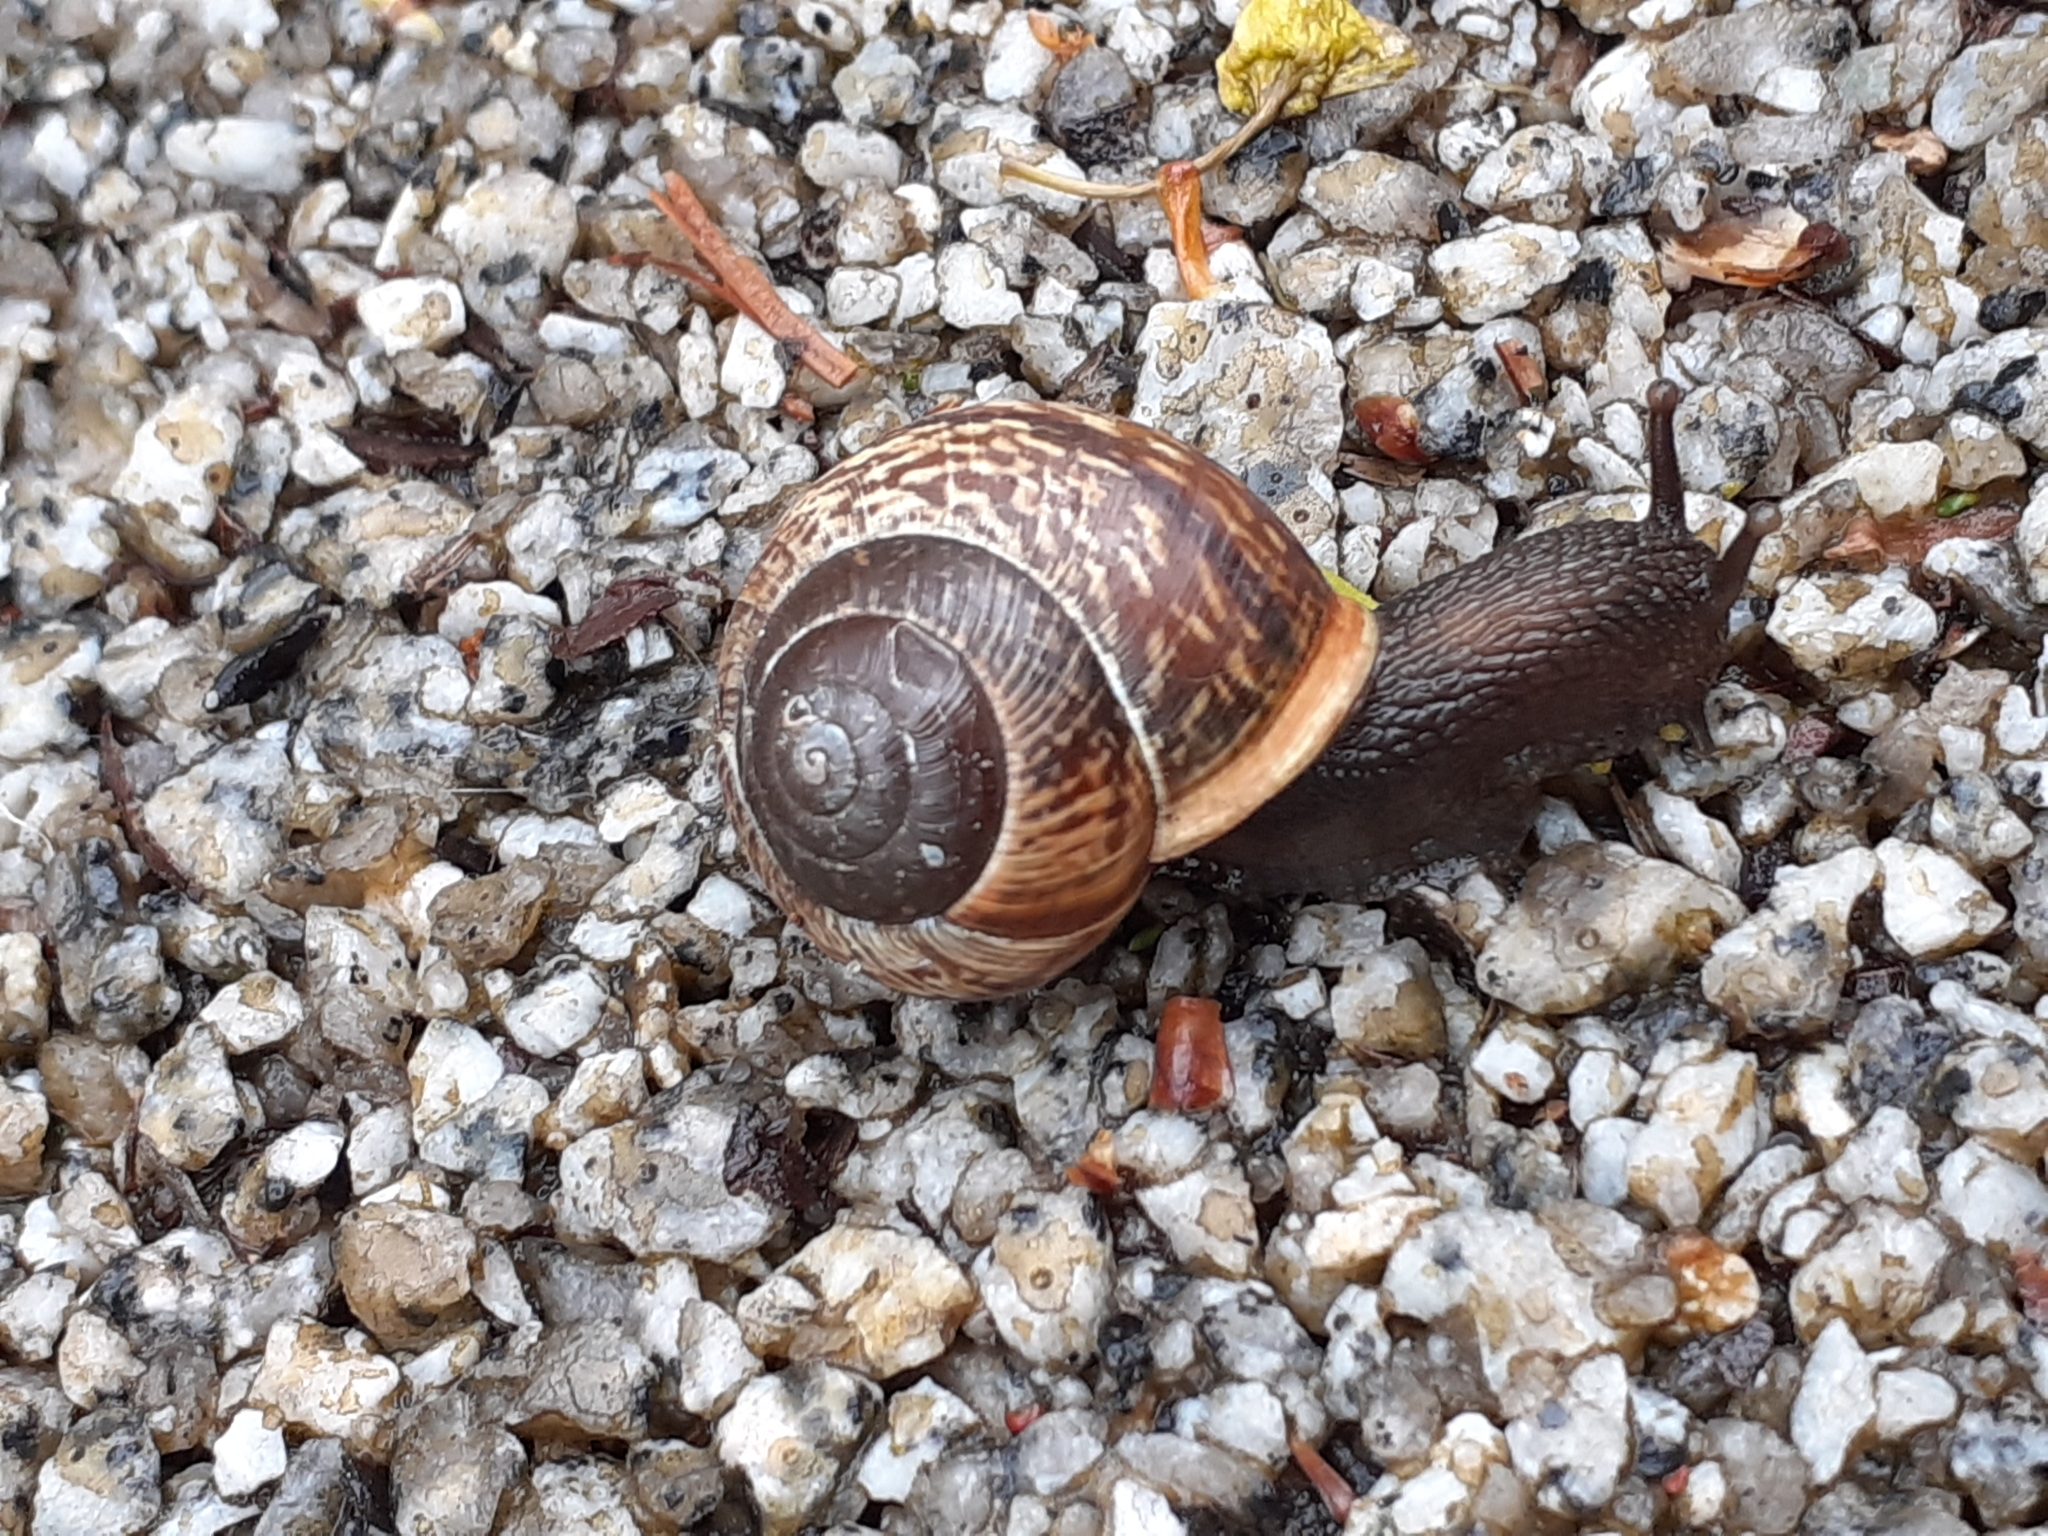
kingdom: Animalia
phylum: Mollusca
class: Gastropoda
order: Stylommatophora
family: Helicidae
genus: Arianta
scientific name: Arianta arbustorum
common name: Copse snail
